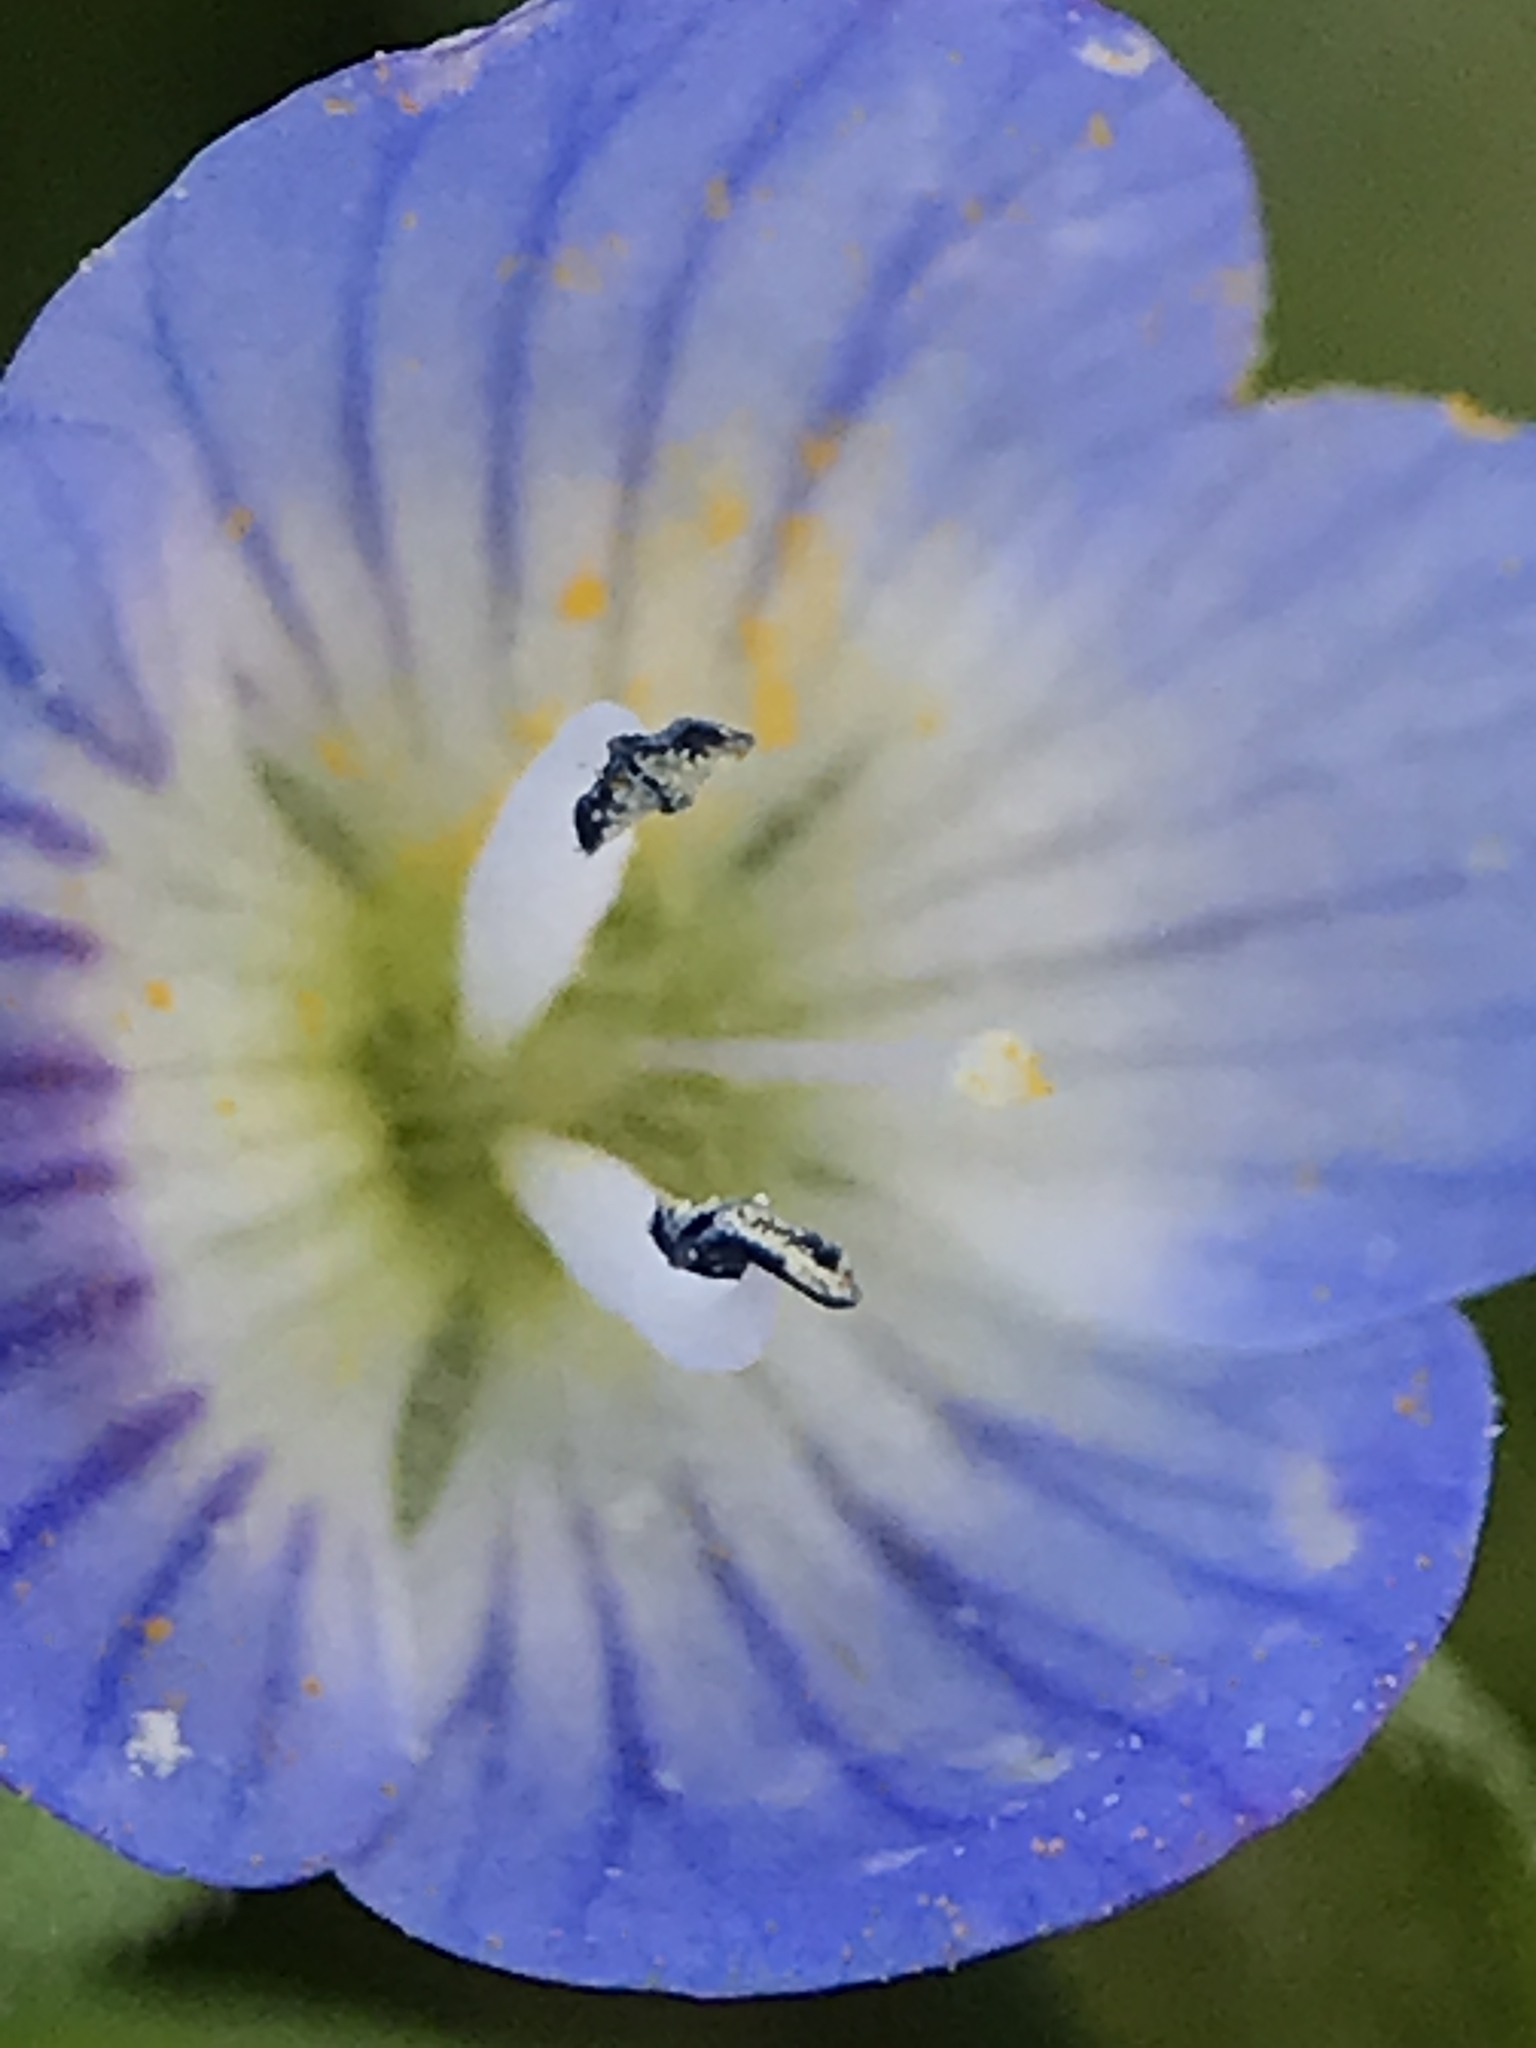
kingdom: Plantae
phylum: Tracheophyta
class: Magnoliopsida
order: Lamiales
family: Plantaginaceae
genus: Veronica
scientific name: Veronica persica
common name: Common field-speedwell
